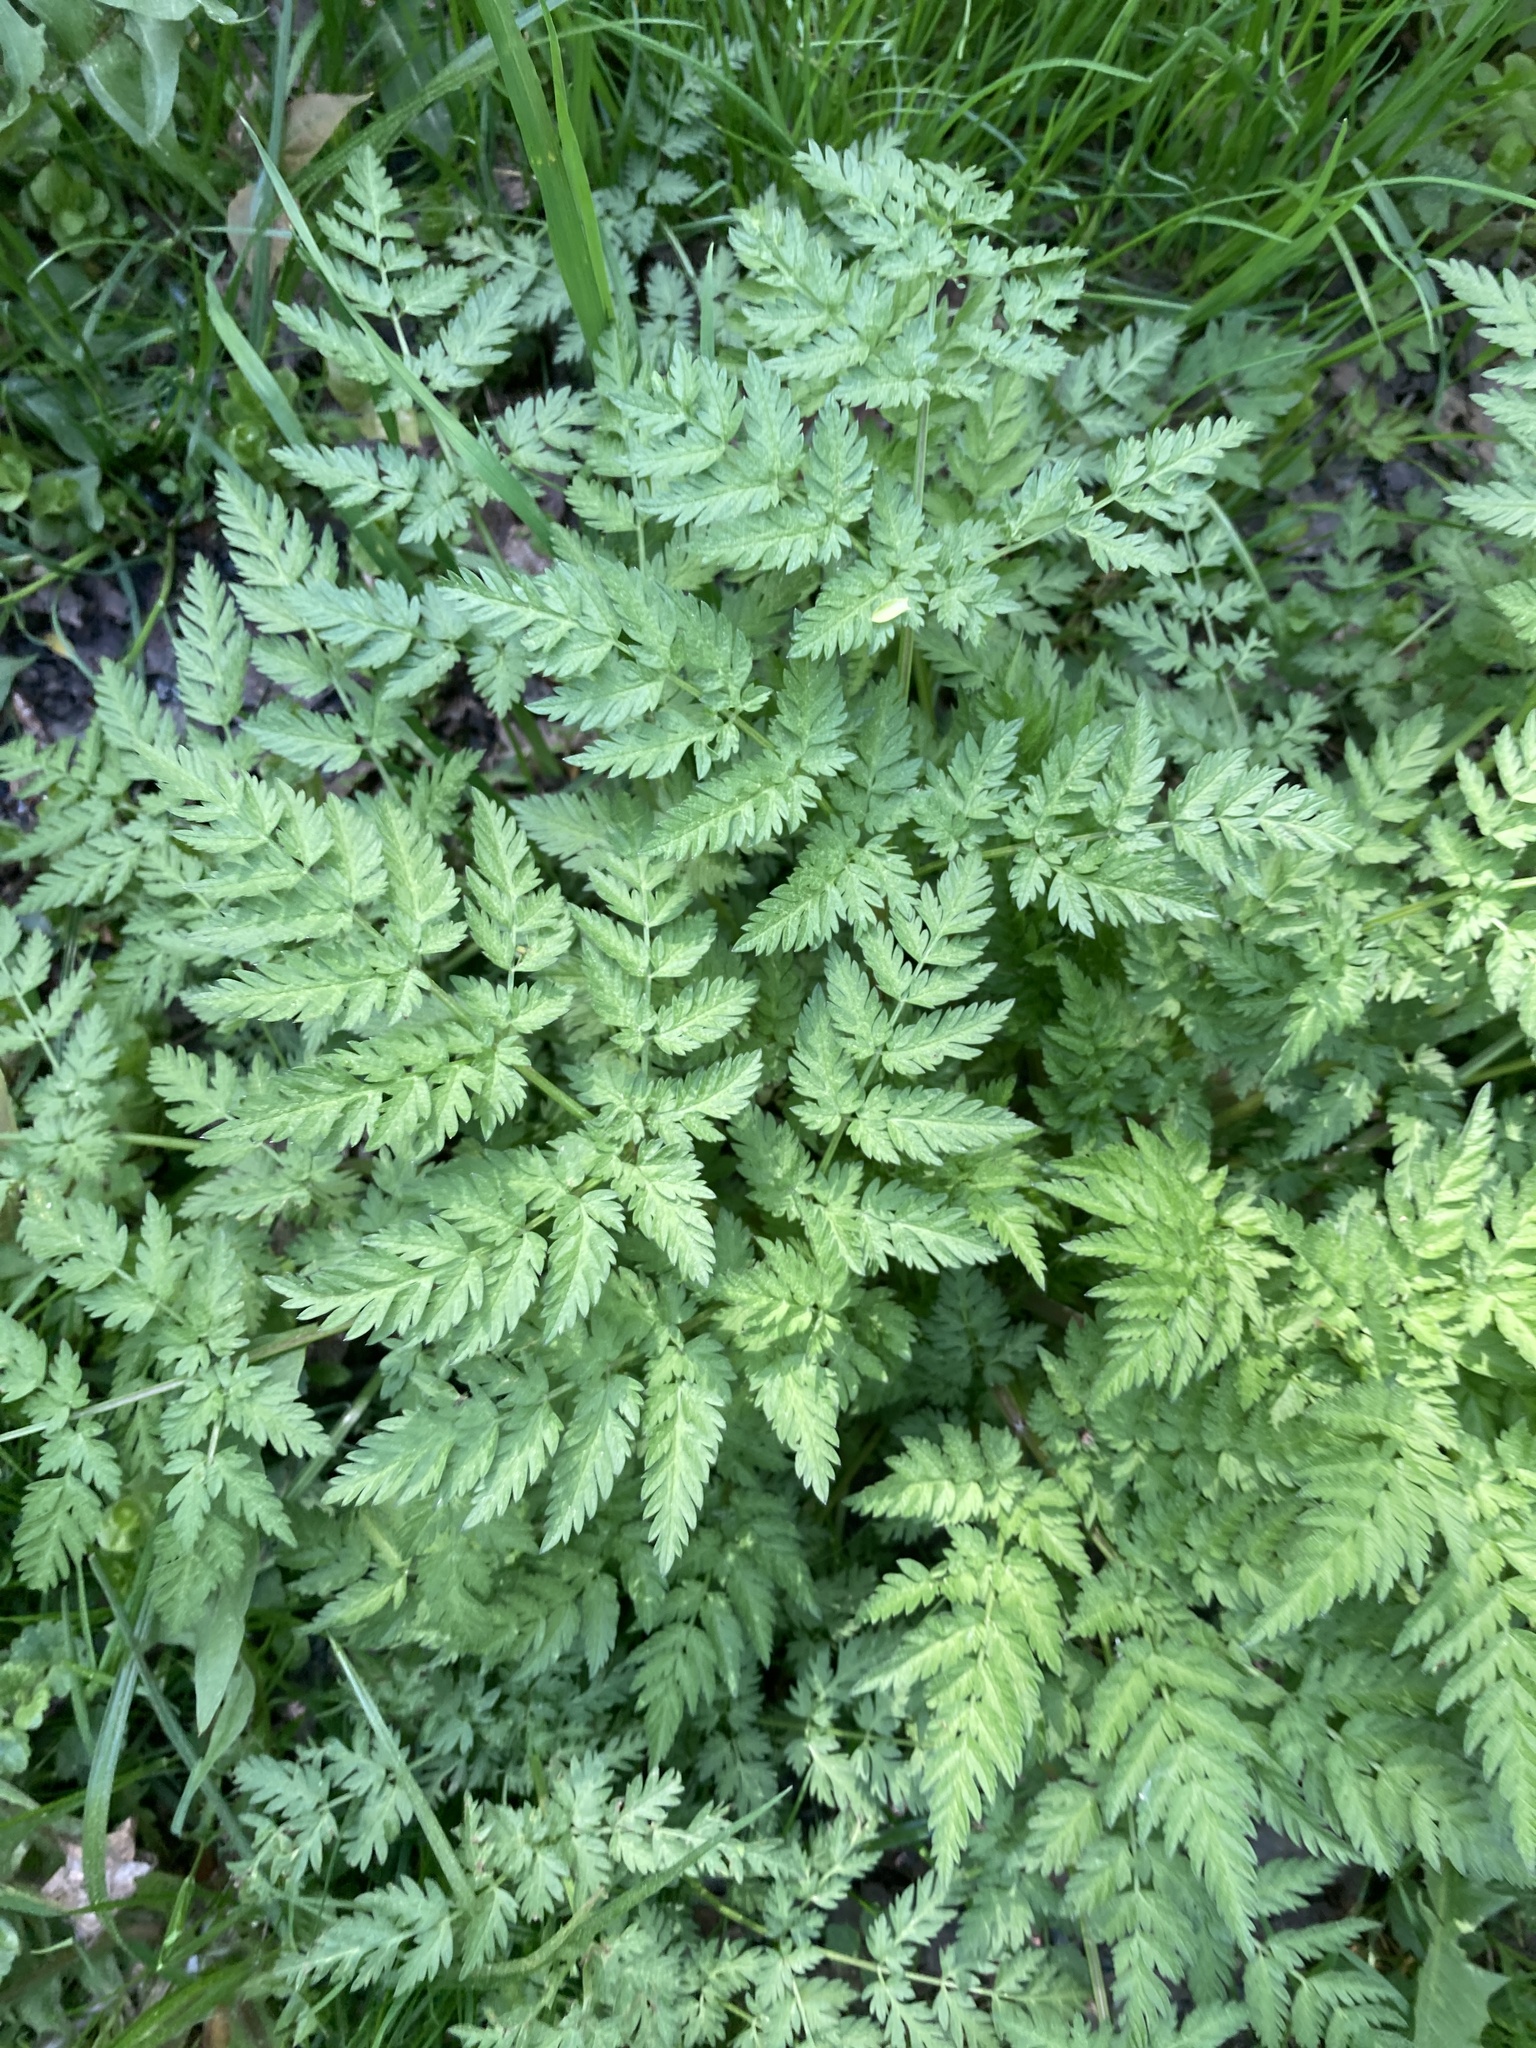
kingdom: Plantae
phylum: Tracheophyta
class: Magnoliopsida
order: Apiales
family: Apiaceae
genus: Anthriscus
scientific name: Anthriscus sylvestris
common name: Cow parsley
